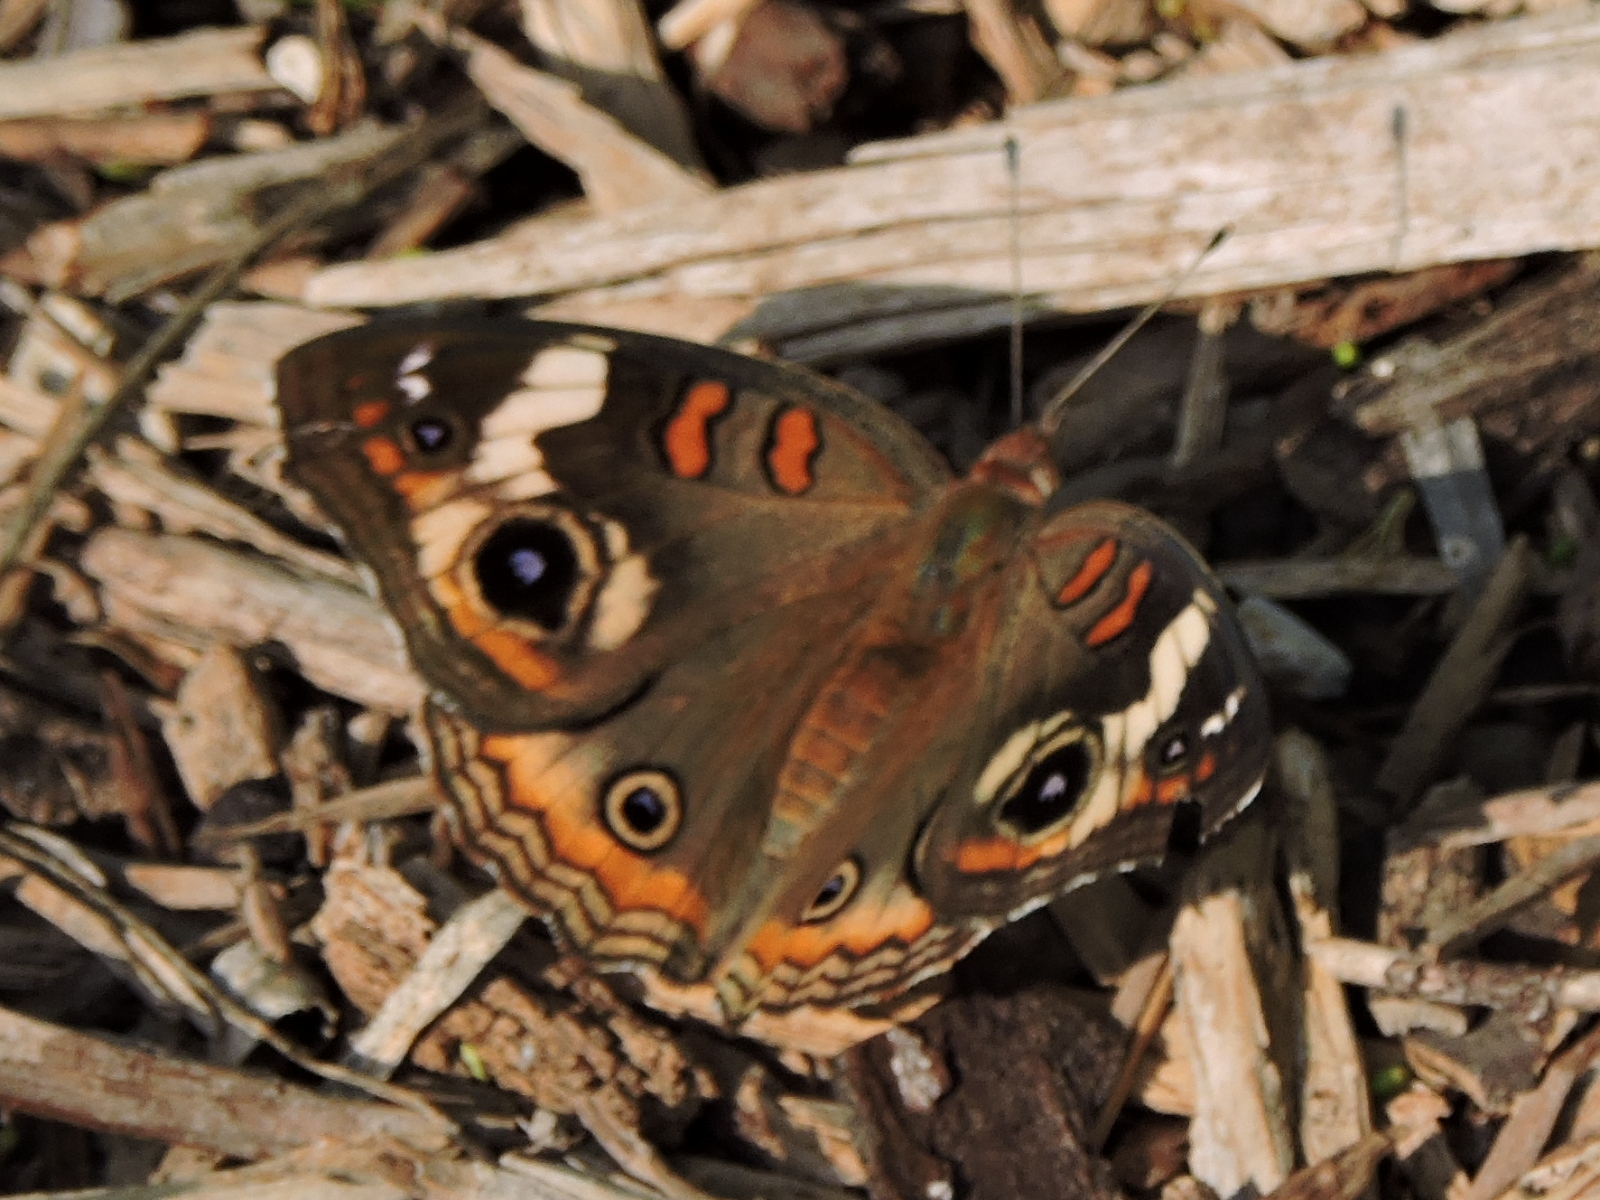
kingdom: Animalia
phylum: Arthropoda
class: Insecta
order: Lepidoptera
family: Nymphalidae
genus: Junonia
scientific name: Junonia coenia
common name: Common buckeye
